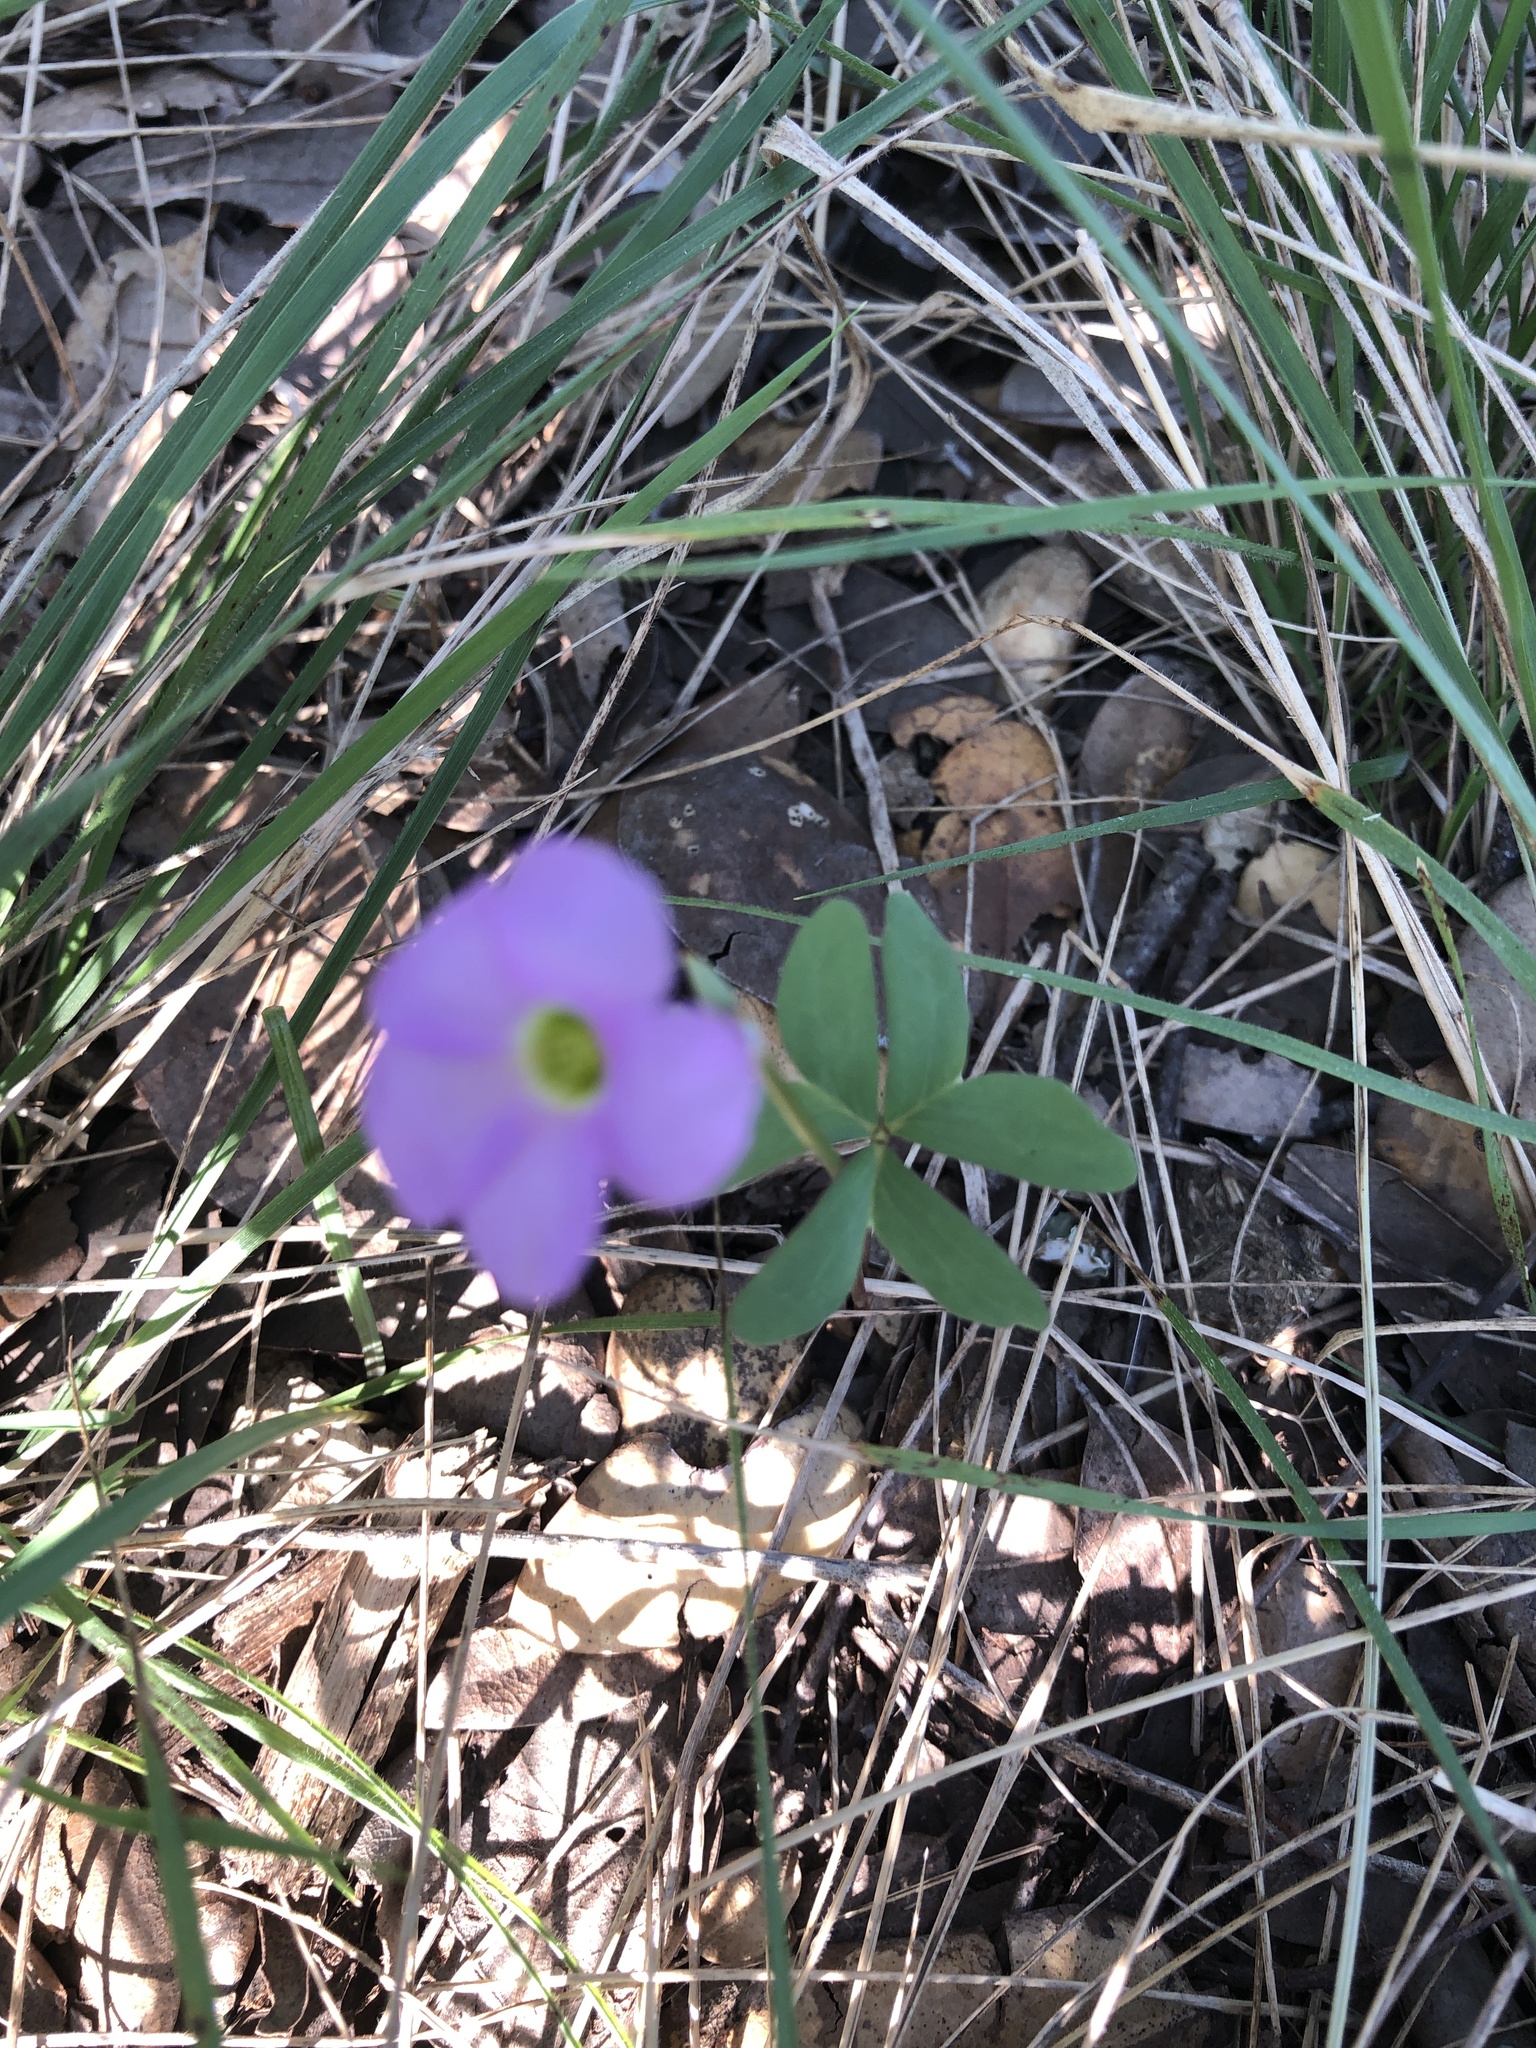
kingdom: Plantae
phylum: Tracheophyta
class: Magnoliopsida
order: Oxalidales
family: Oxalidaceae
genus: Oxalis
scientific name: Oxalis drummondii
